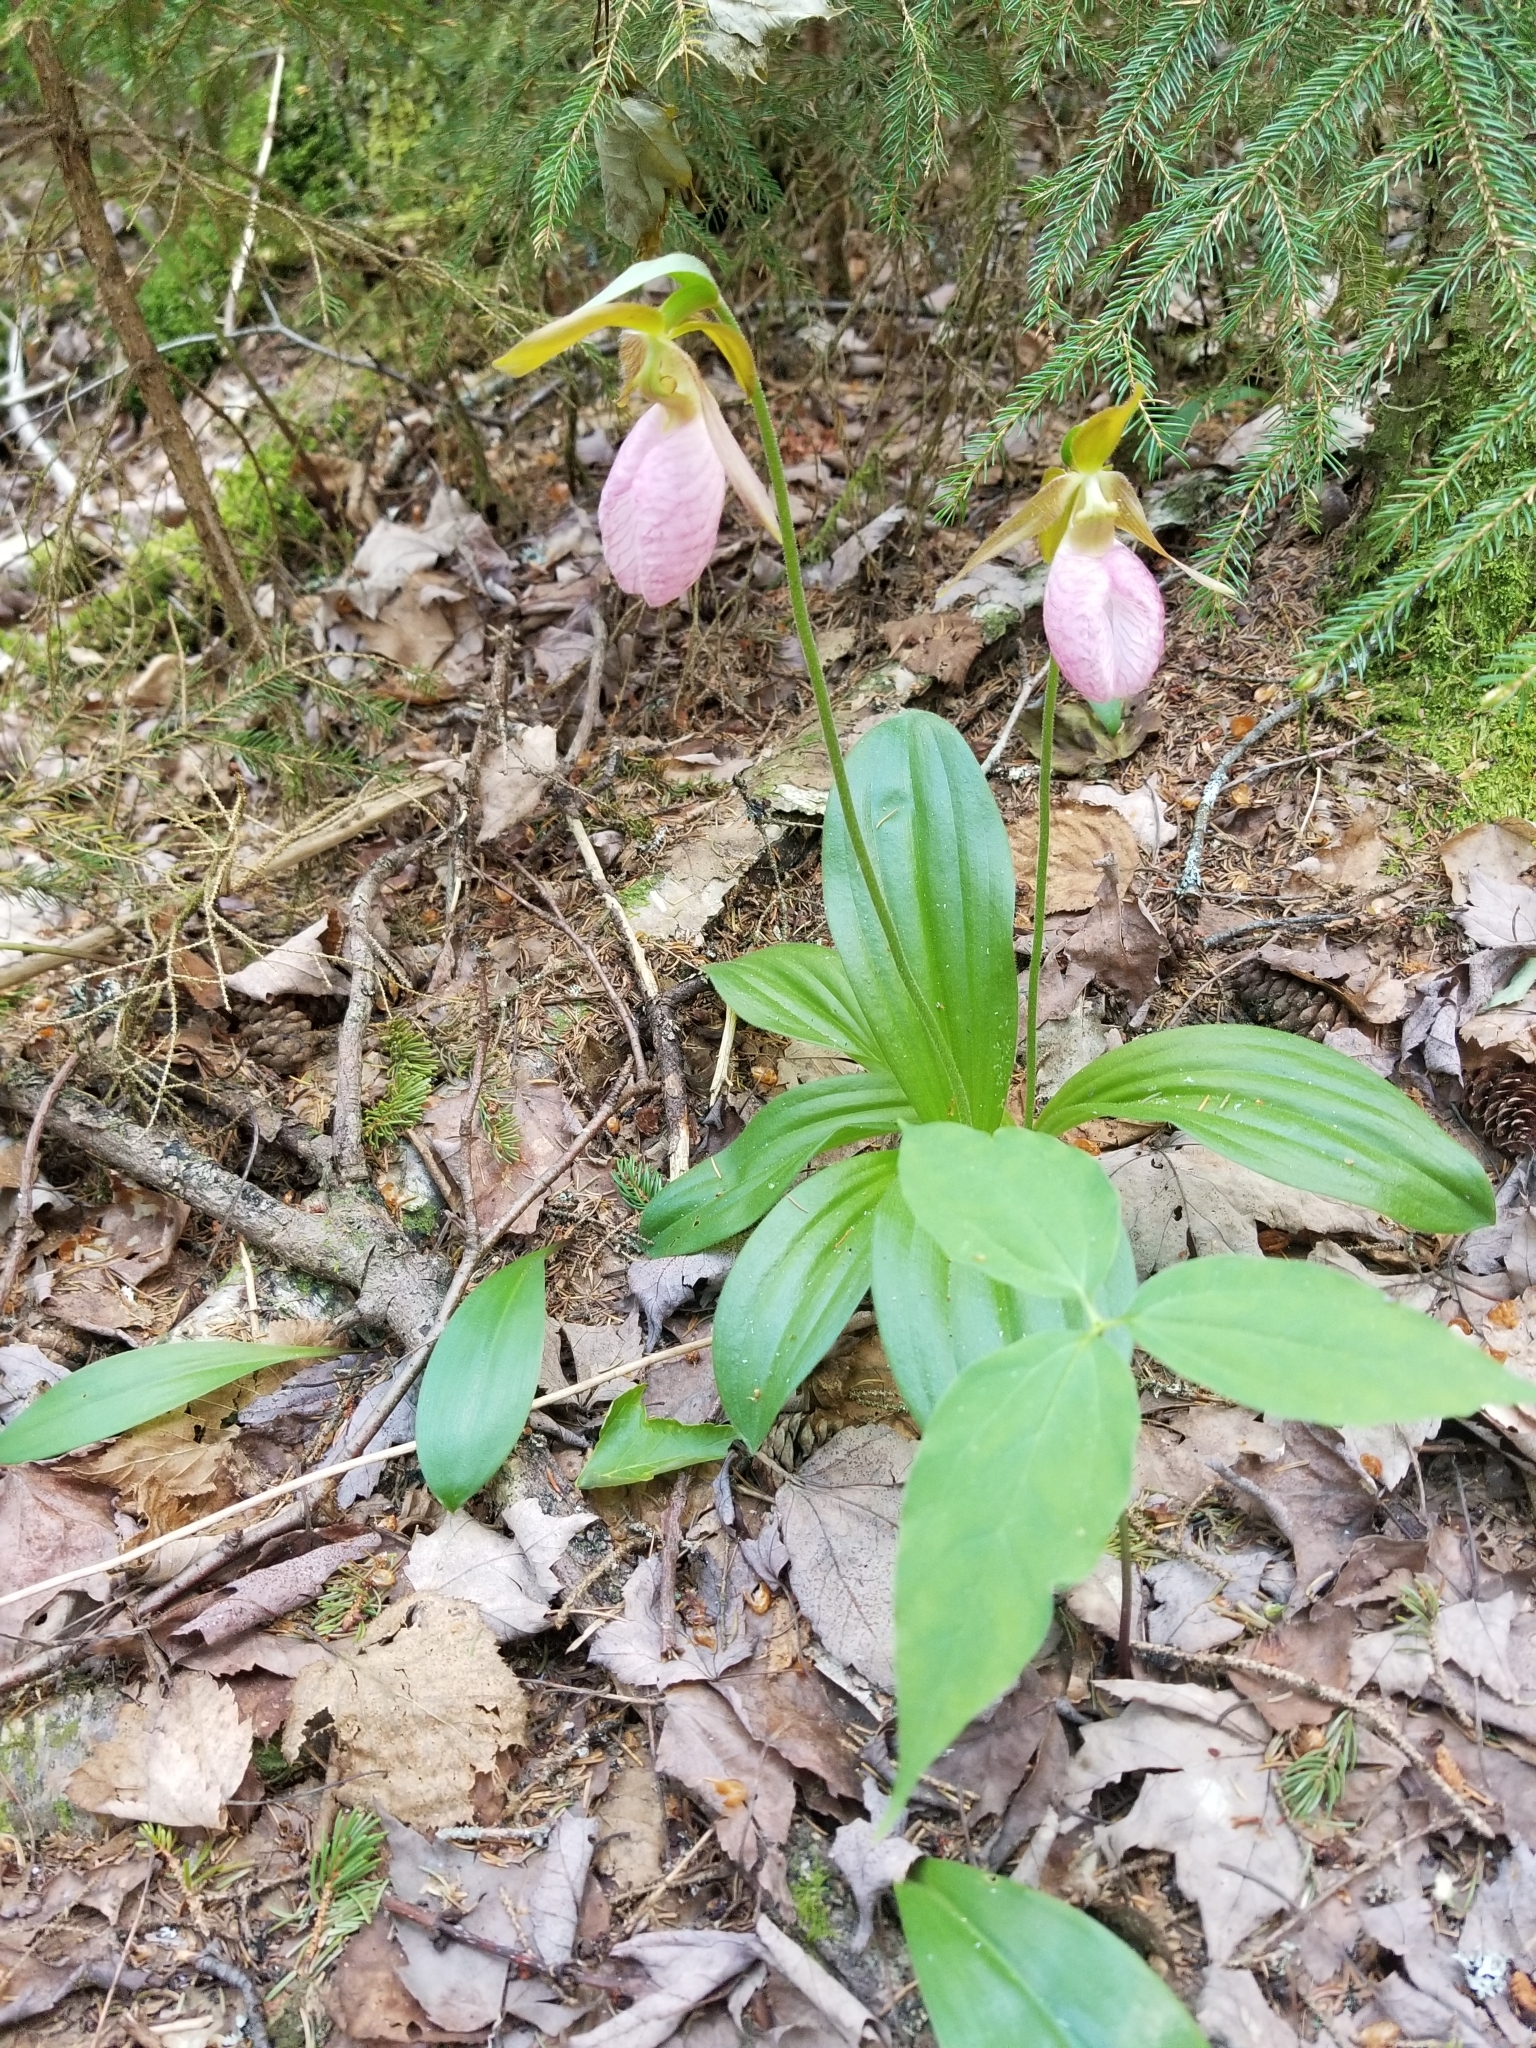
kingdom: Plantae
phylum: Tracheophyta
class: Liliopsida
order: Asparagales
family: Orchidaceae
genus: Cypripedium
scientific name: Cypripedium acaule
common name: Pink lady's-slipper
